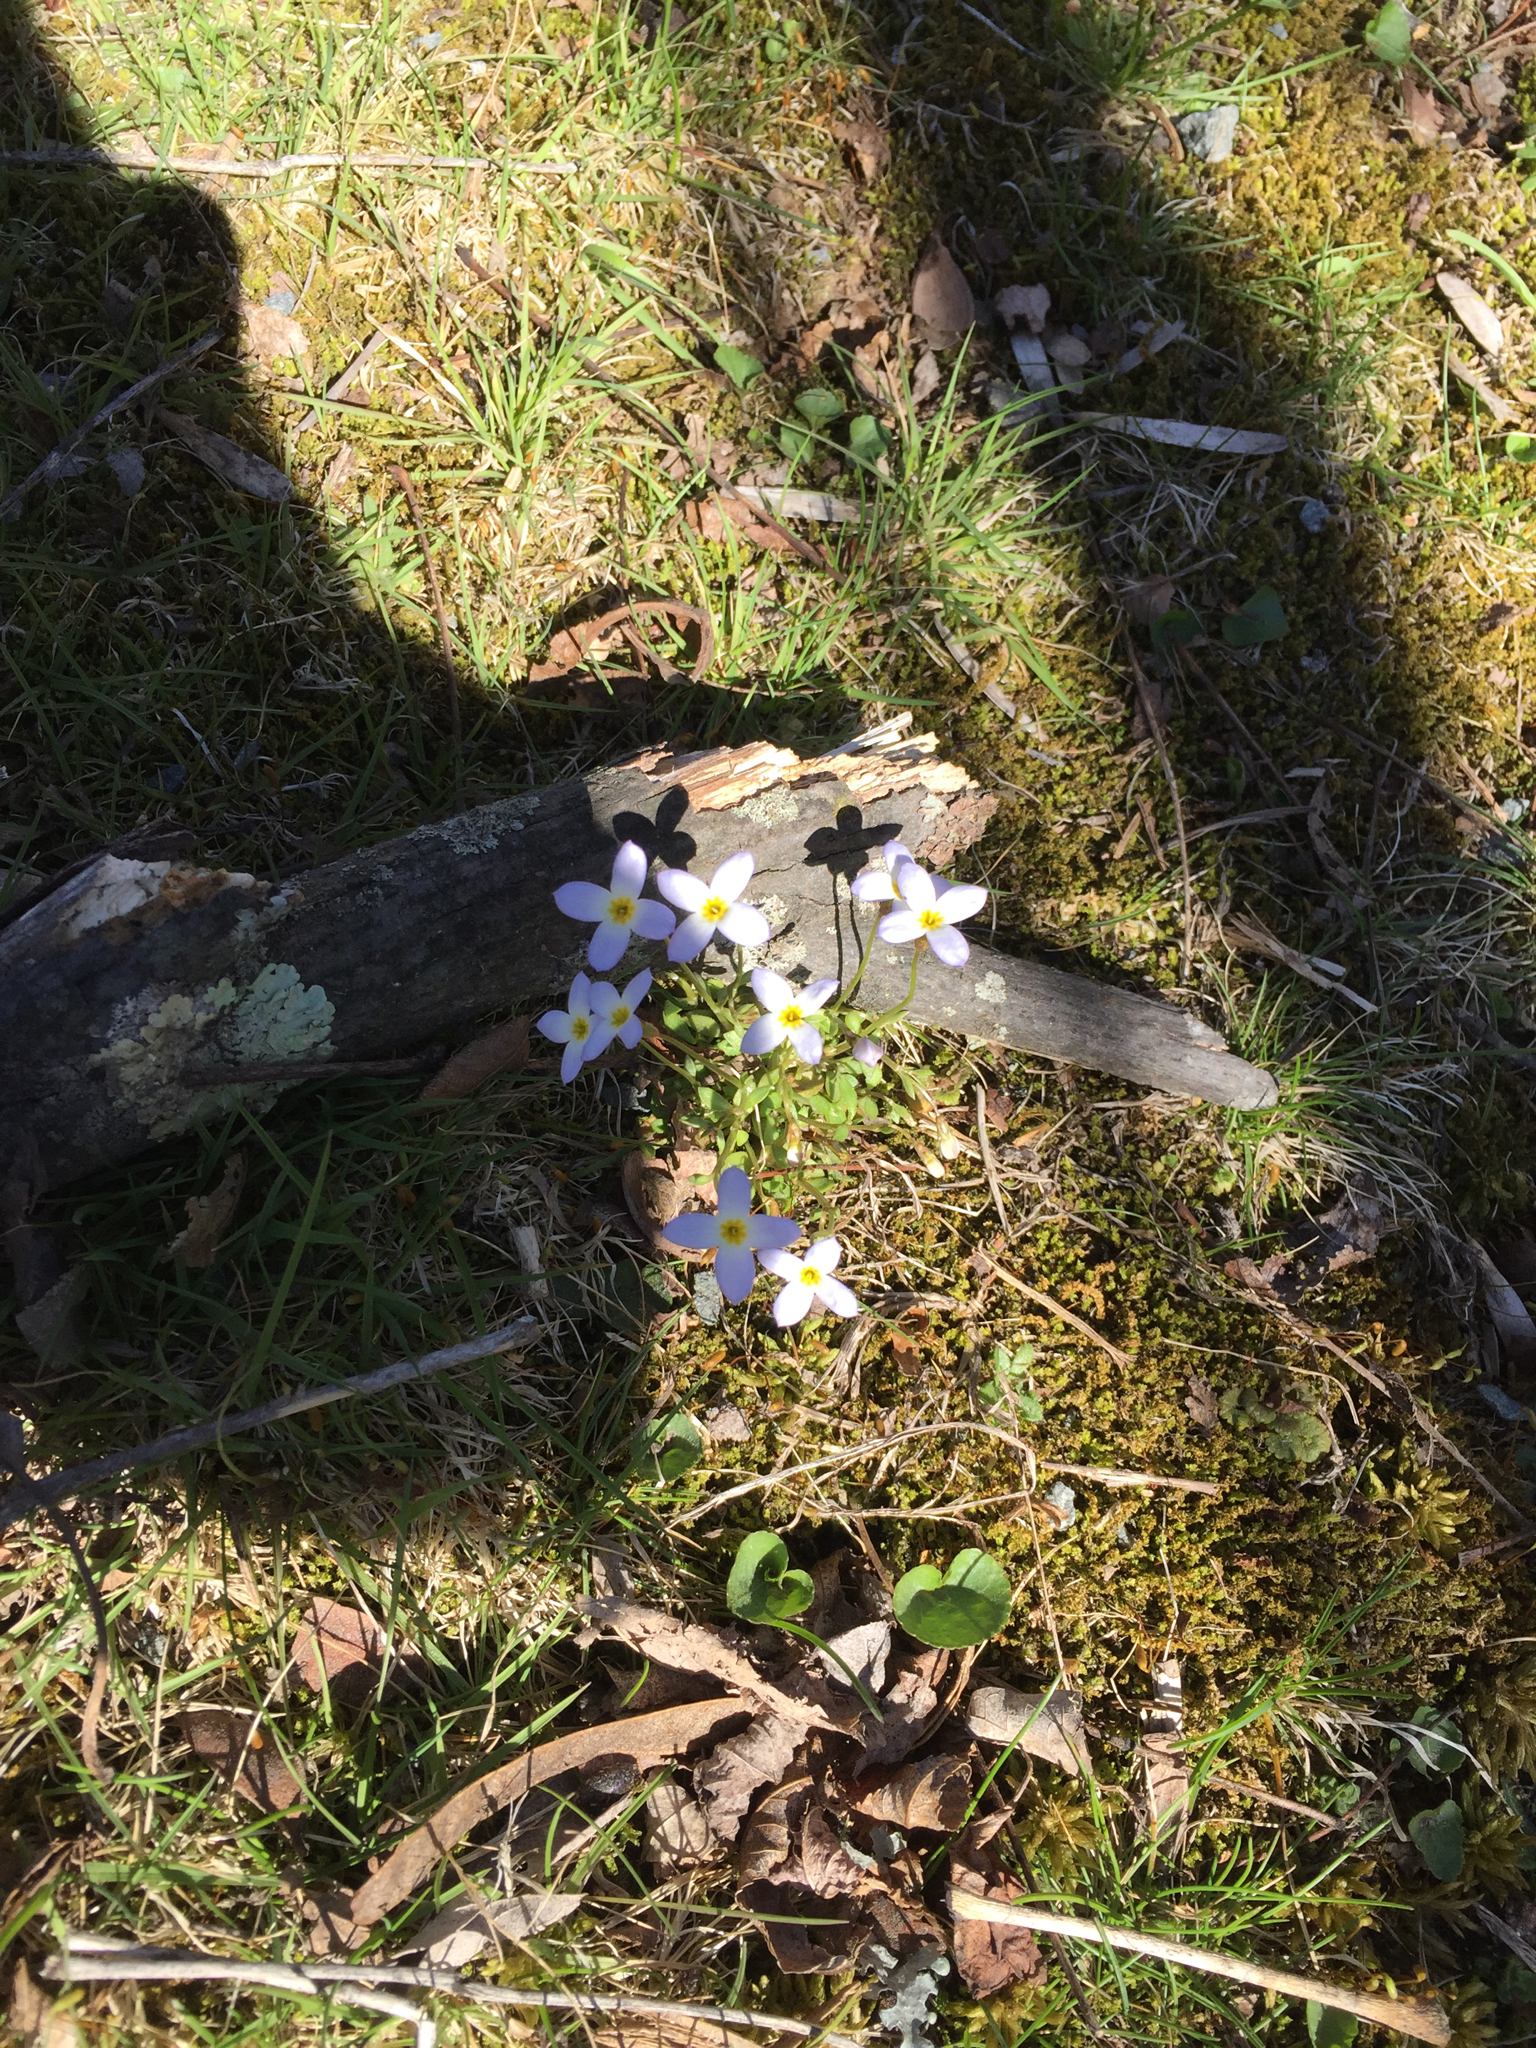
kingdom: Plantae
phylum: Tracheophyta
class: Magnoliopsida
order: Gentianales
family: Rubiaceae
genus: Houstonia
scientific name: Houstonia caerulea
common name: Bluets
